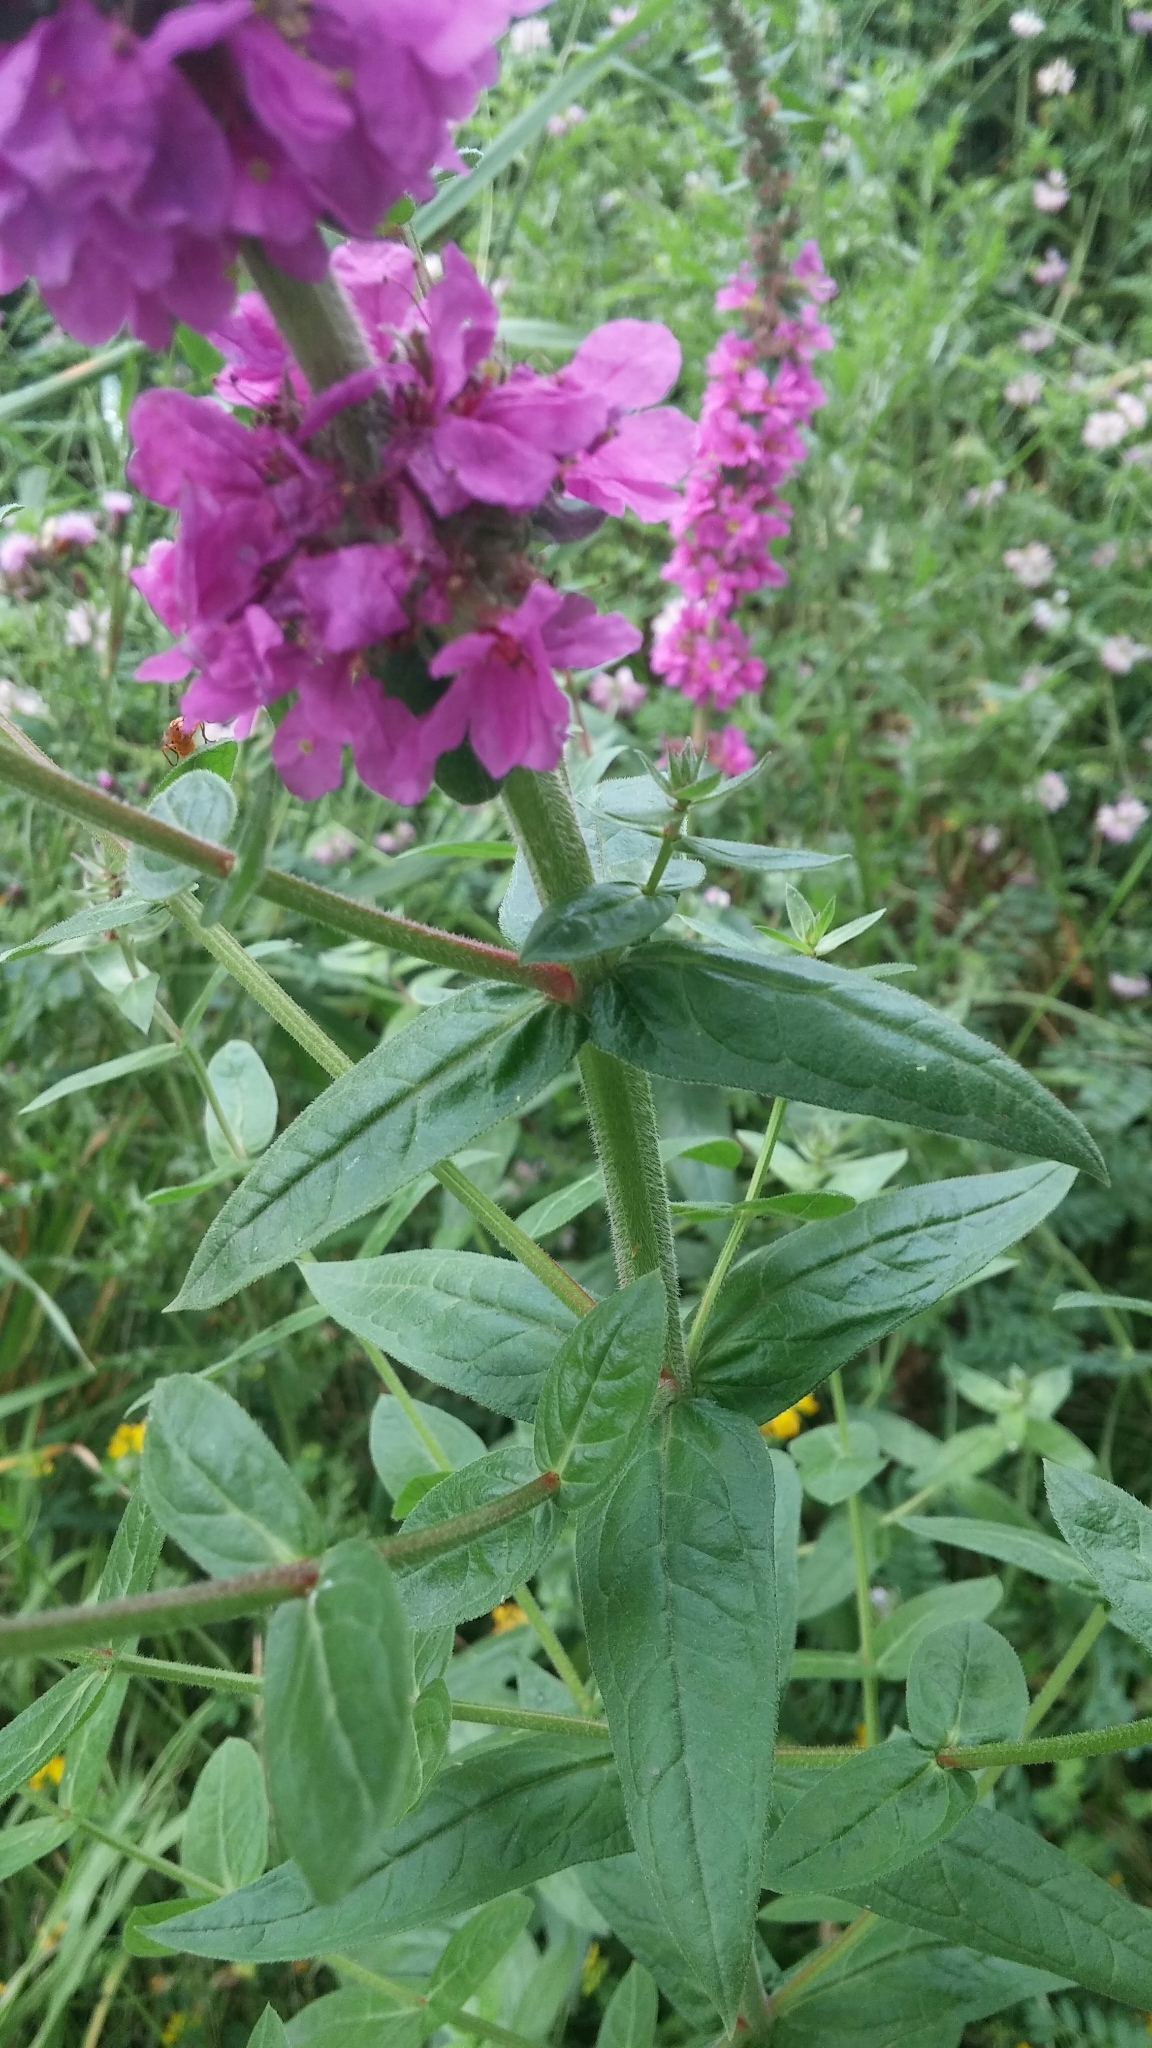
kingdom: Plantae
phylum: Tracheophyta
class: Magnoliopsida
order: Myrtales
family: Lythraceae
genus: Lythrum
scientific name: Lythrum salicaria
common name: Purple loosestrife
